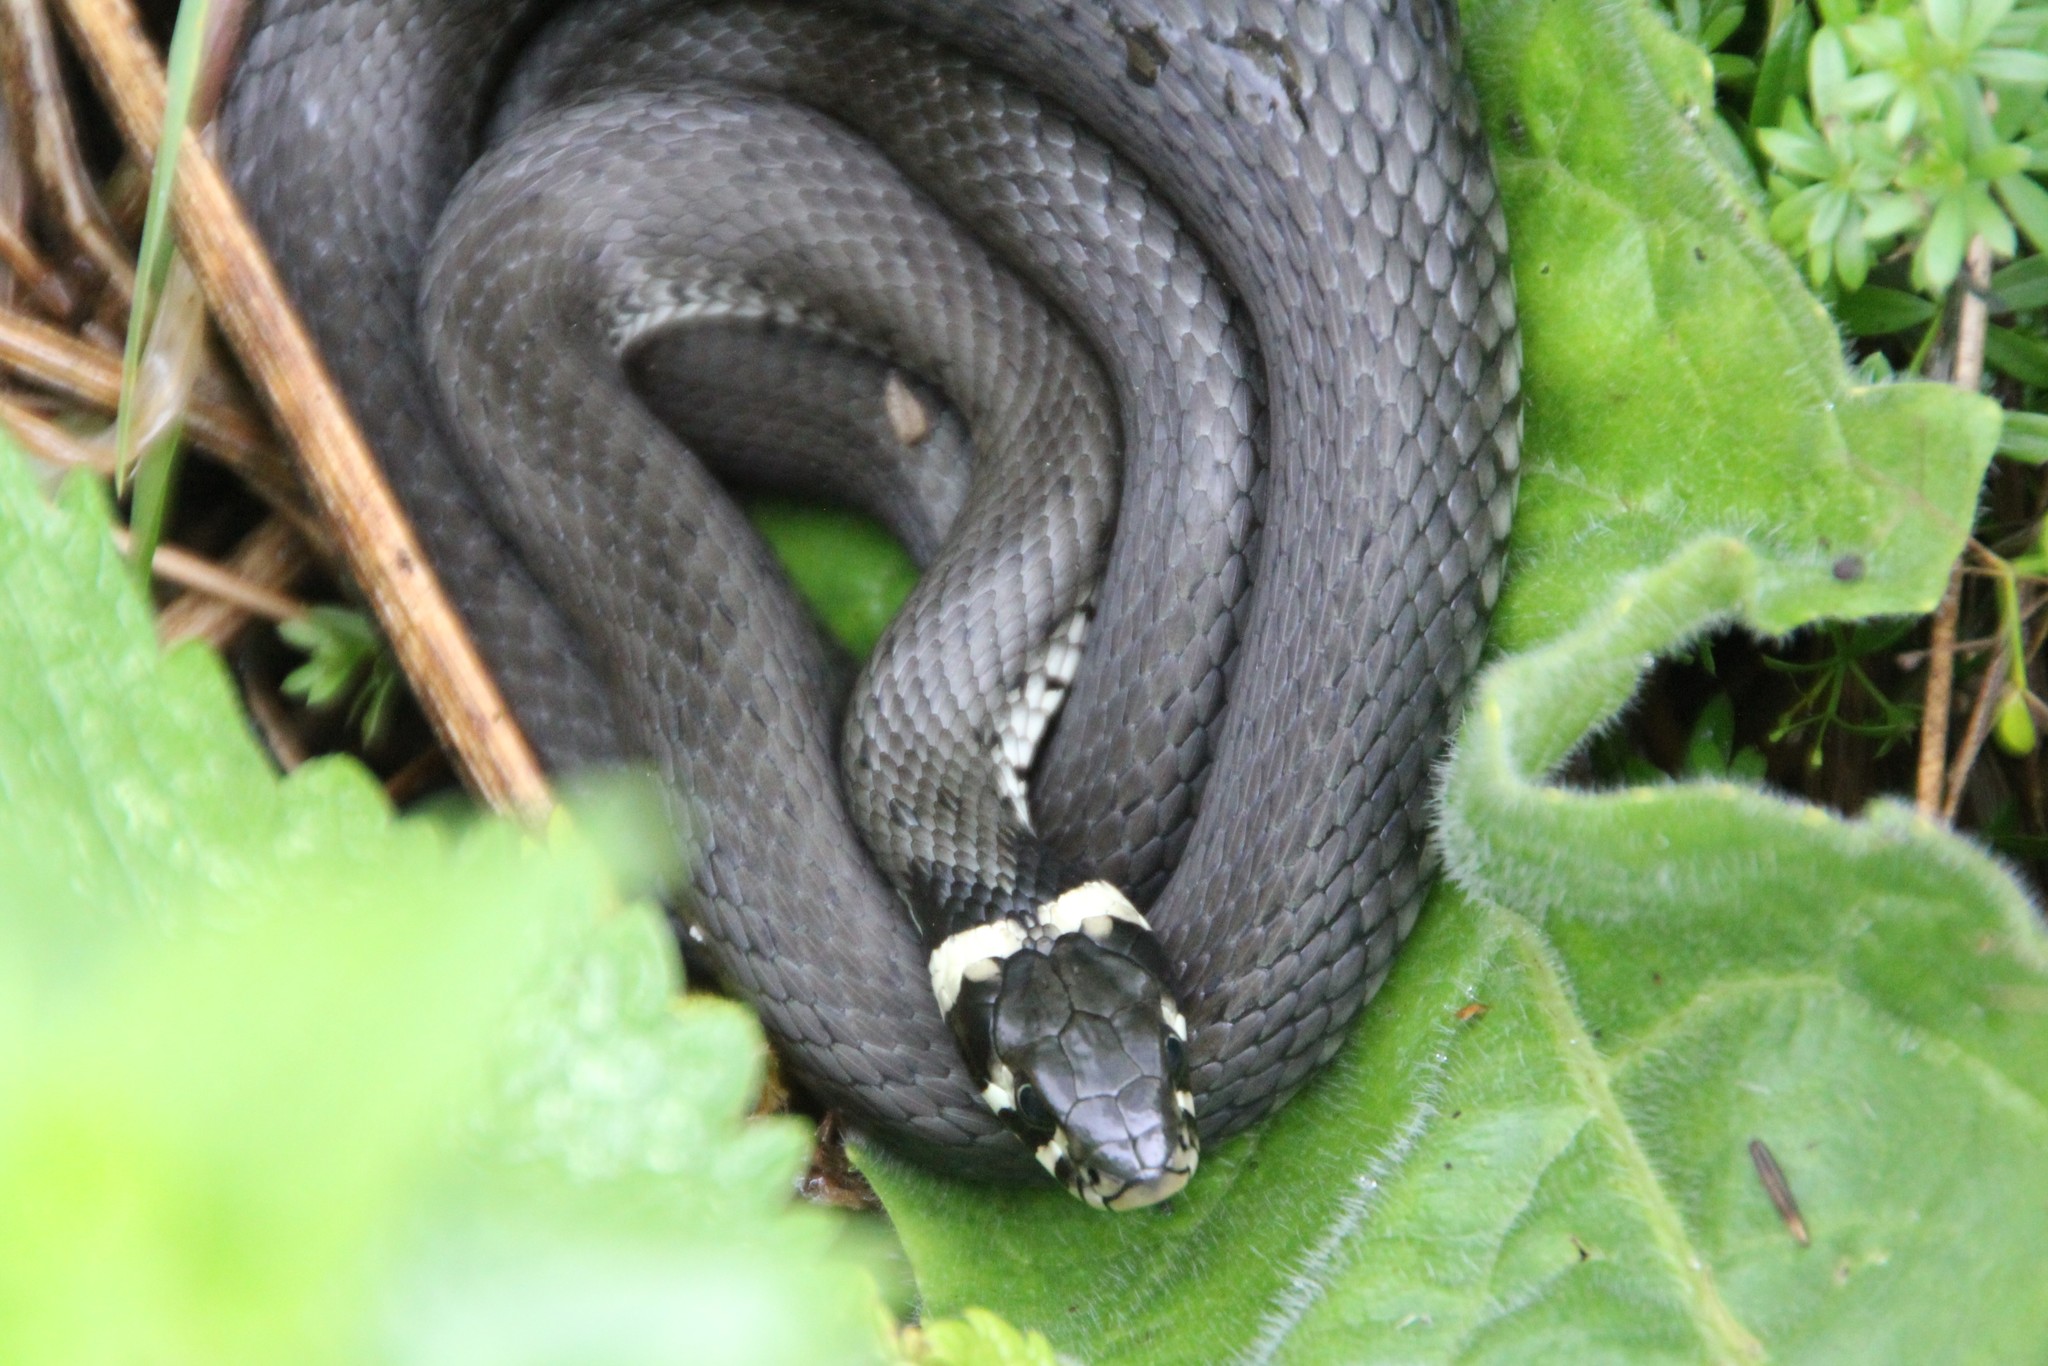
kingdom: Animalia
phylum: Chordata
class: Squamata
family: Colubridae
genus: Natrix
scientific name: Natrix natrix
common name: Grass snake
